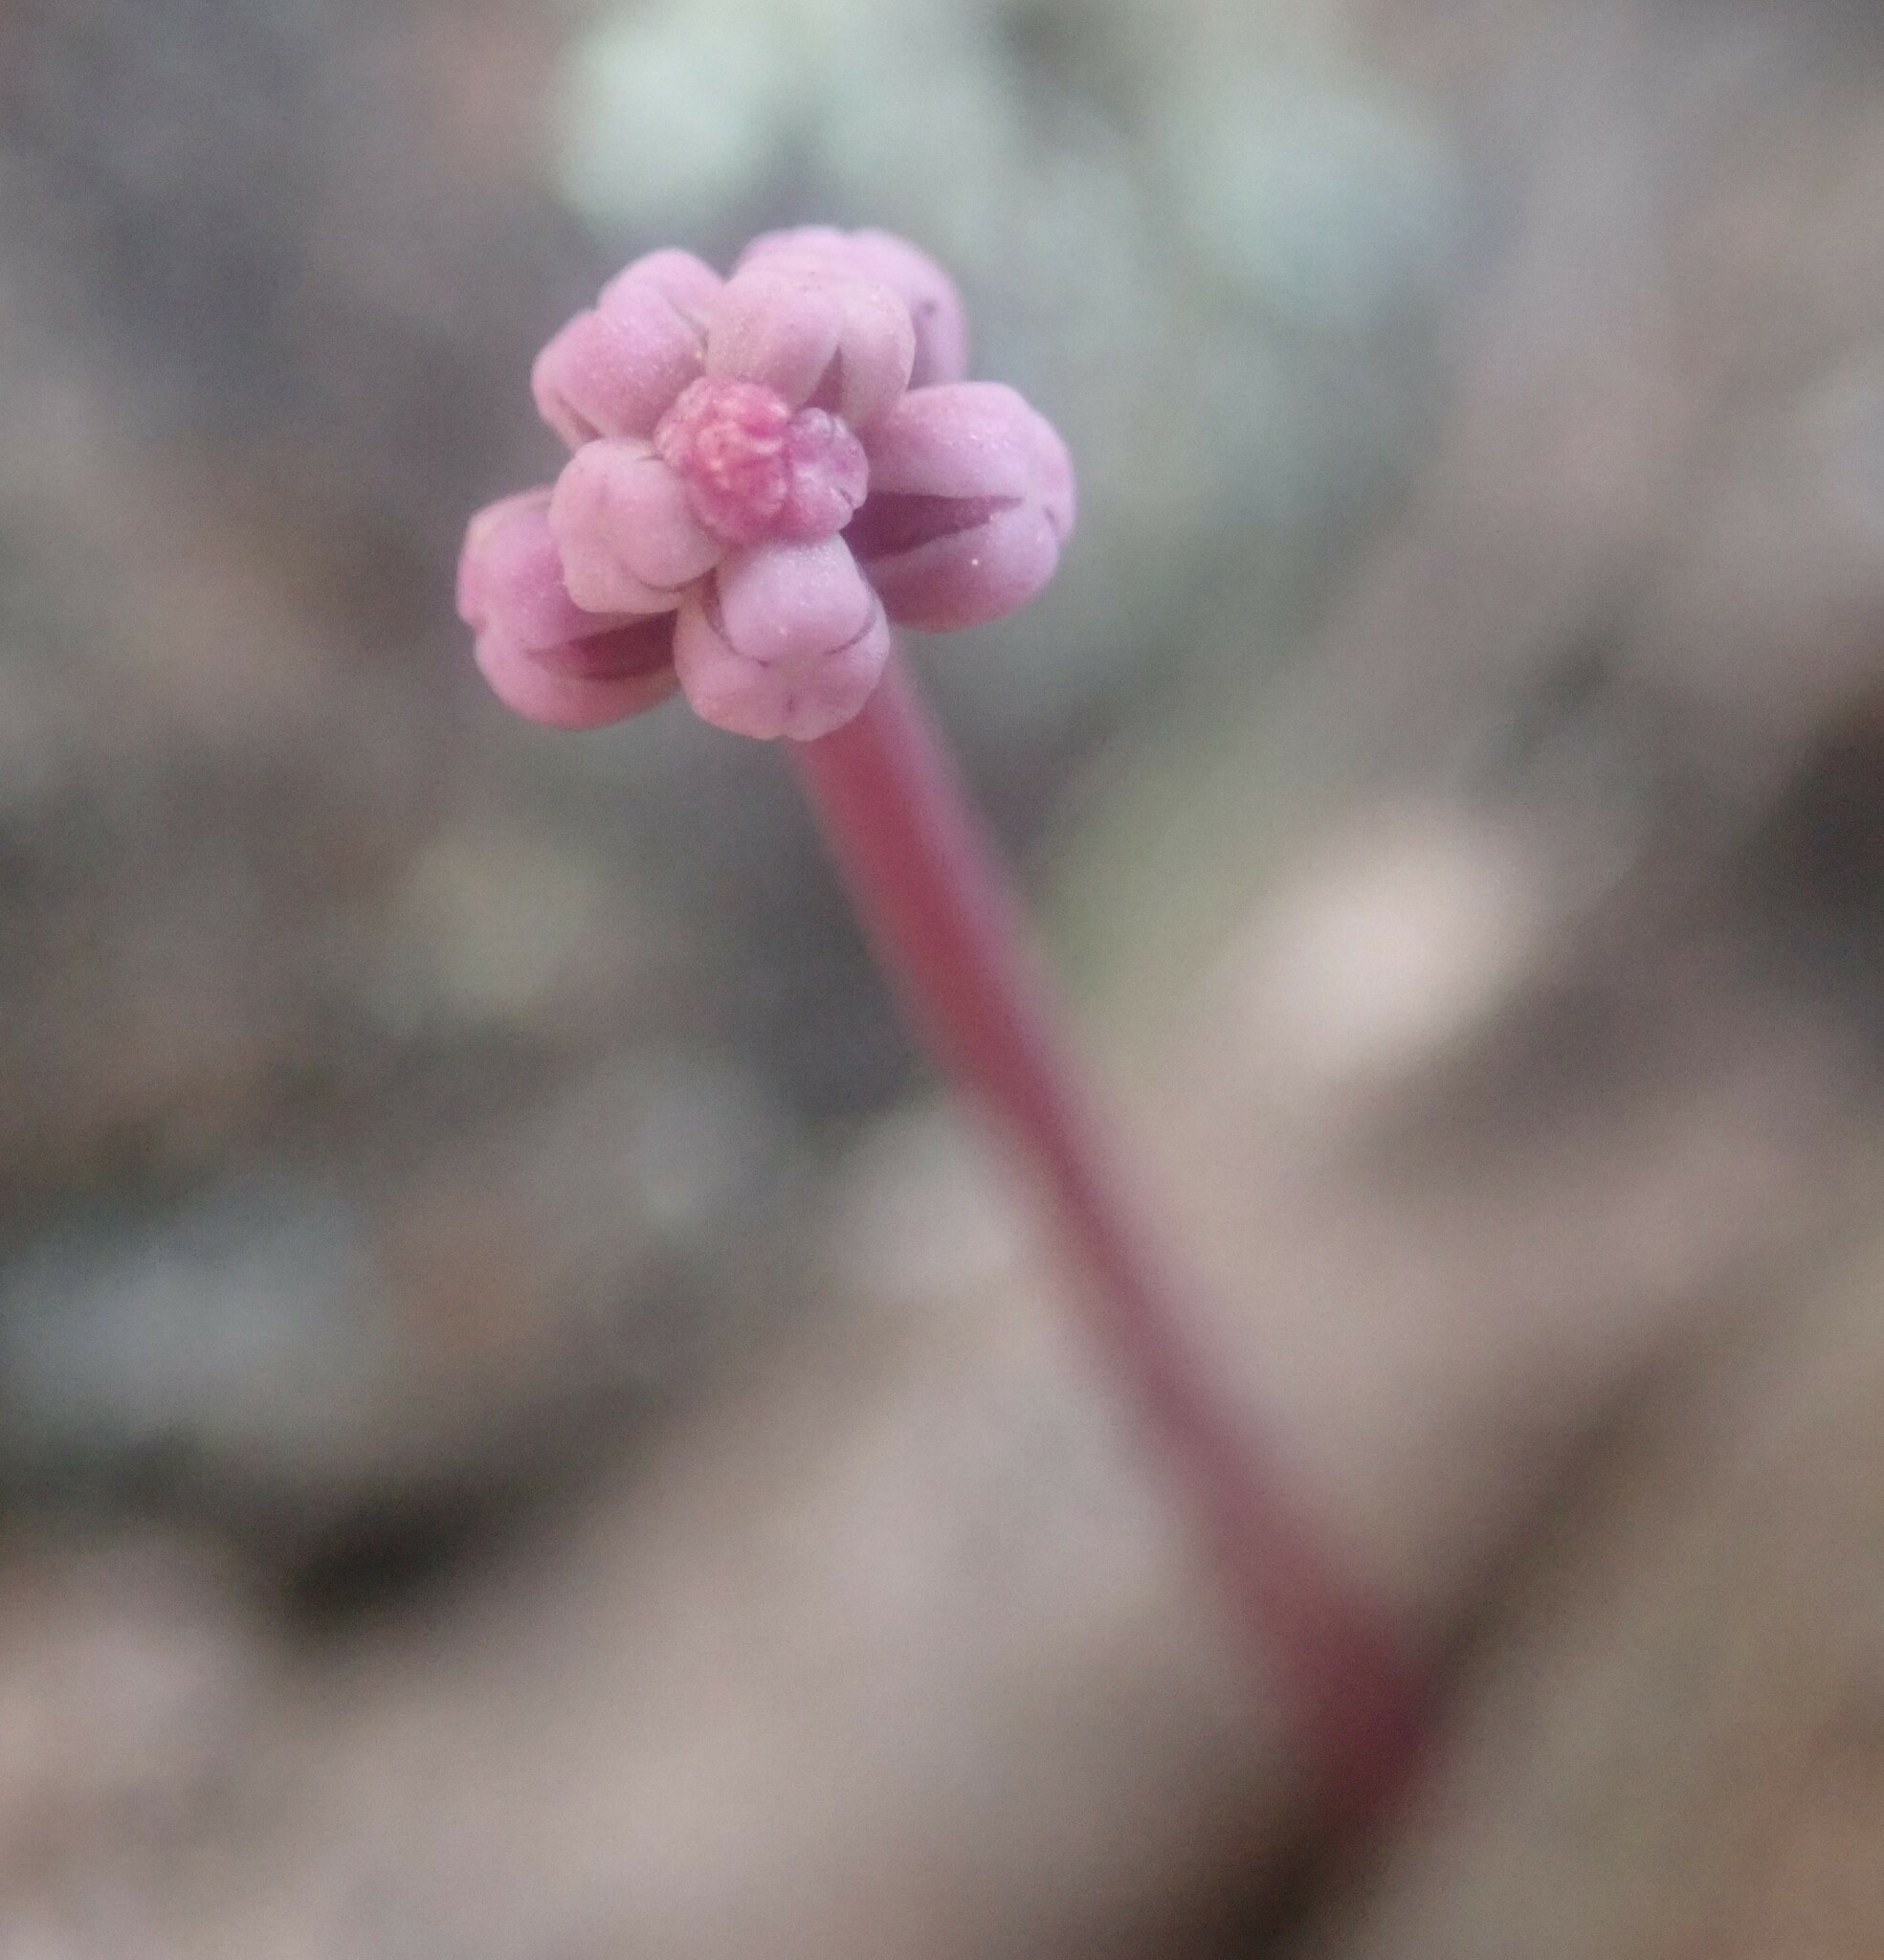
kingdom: Plantae
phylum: Tracheophyta
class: Liliopsida
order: Asparagales
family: Asparagaceae
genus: Drimiopsis
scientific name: Drimiopsis davidsoniae
